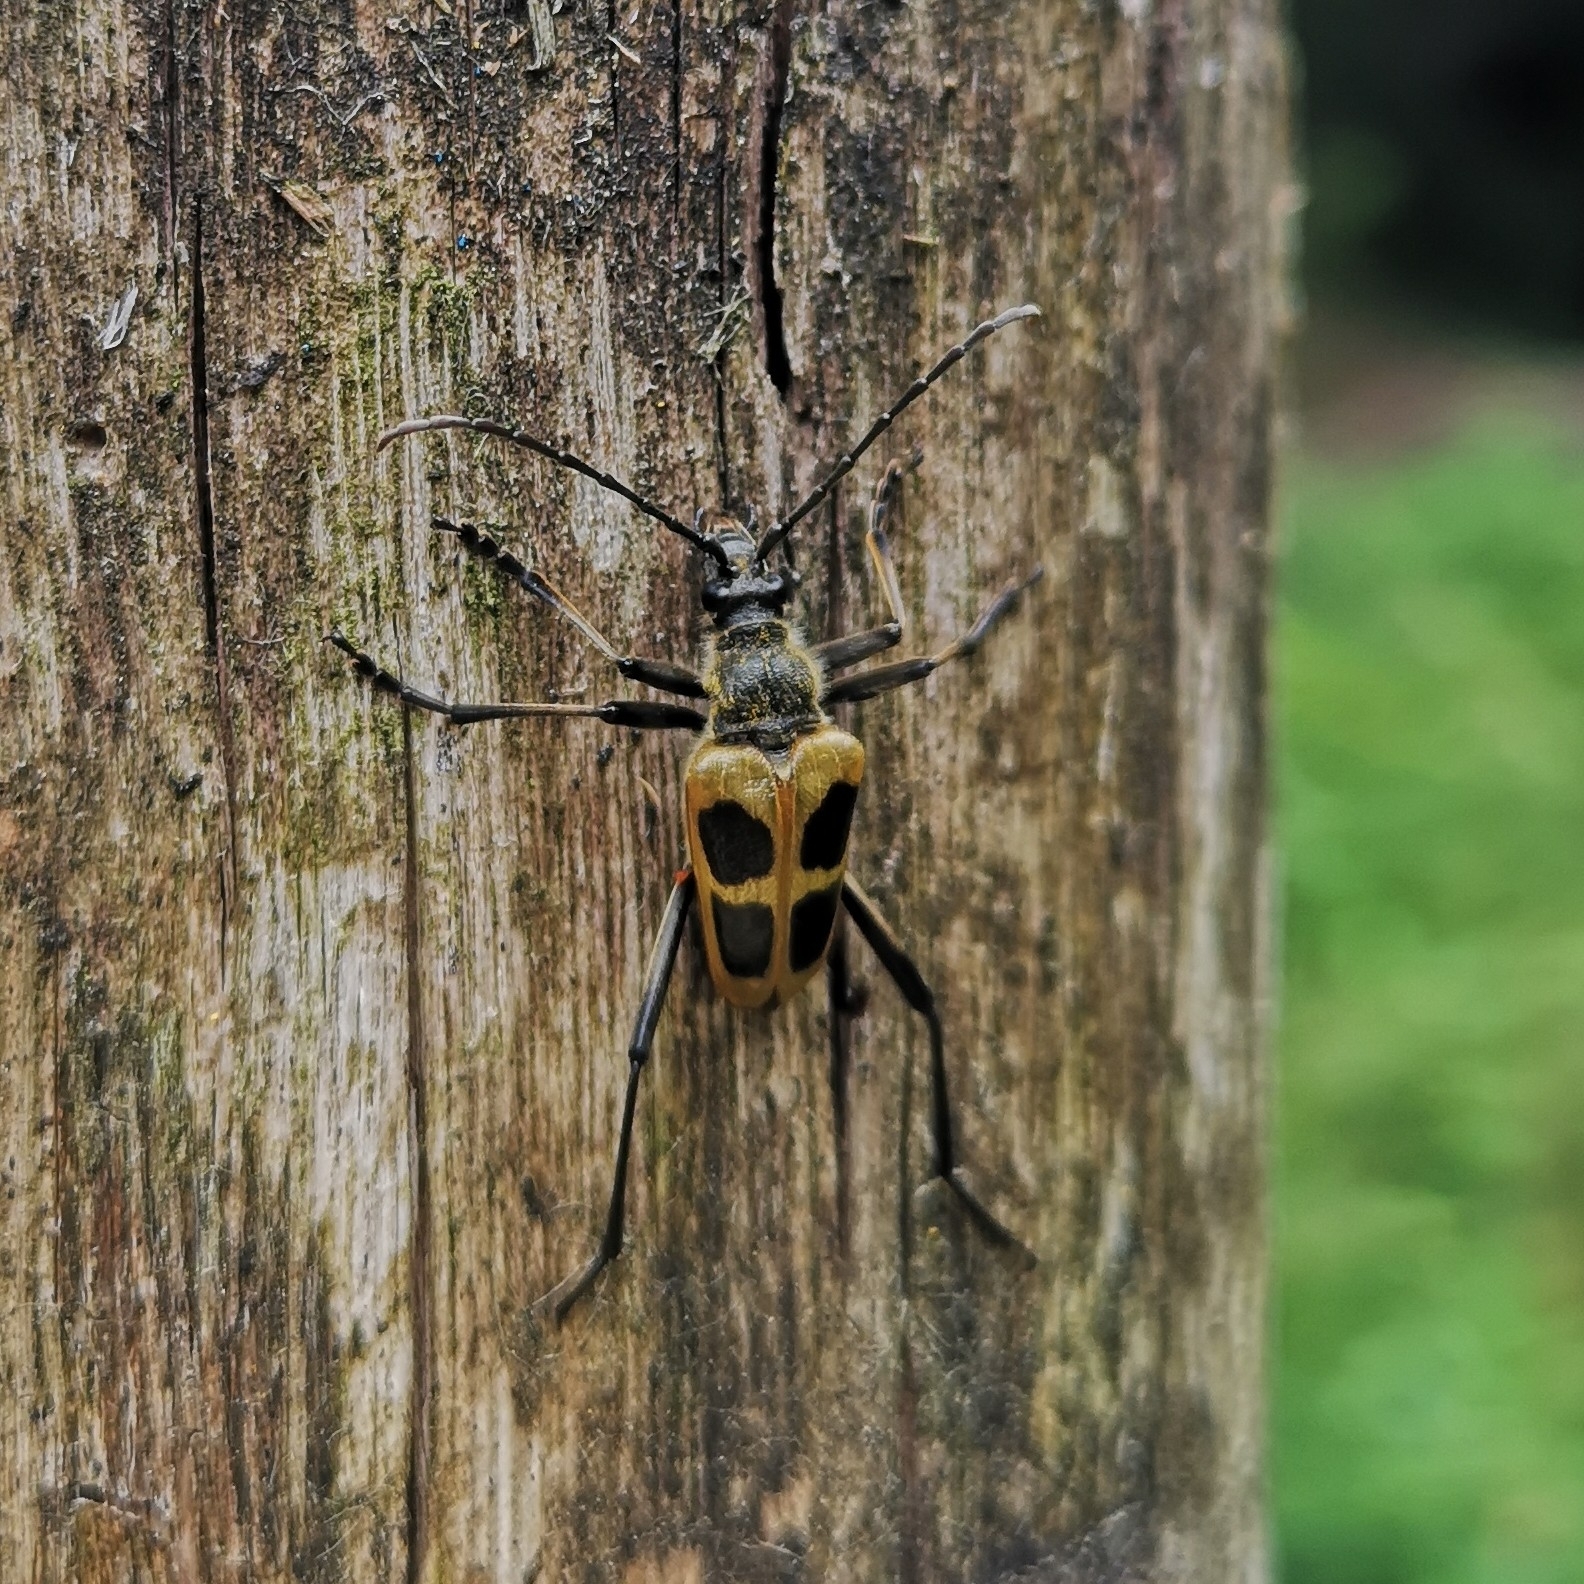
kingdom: Animalia
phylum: Arthropoda
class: Insecta
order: Coleoptera
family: Cerambycidae
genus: Pachyta
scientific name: Pachyta quadrimaculata
